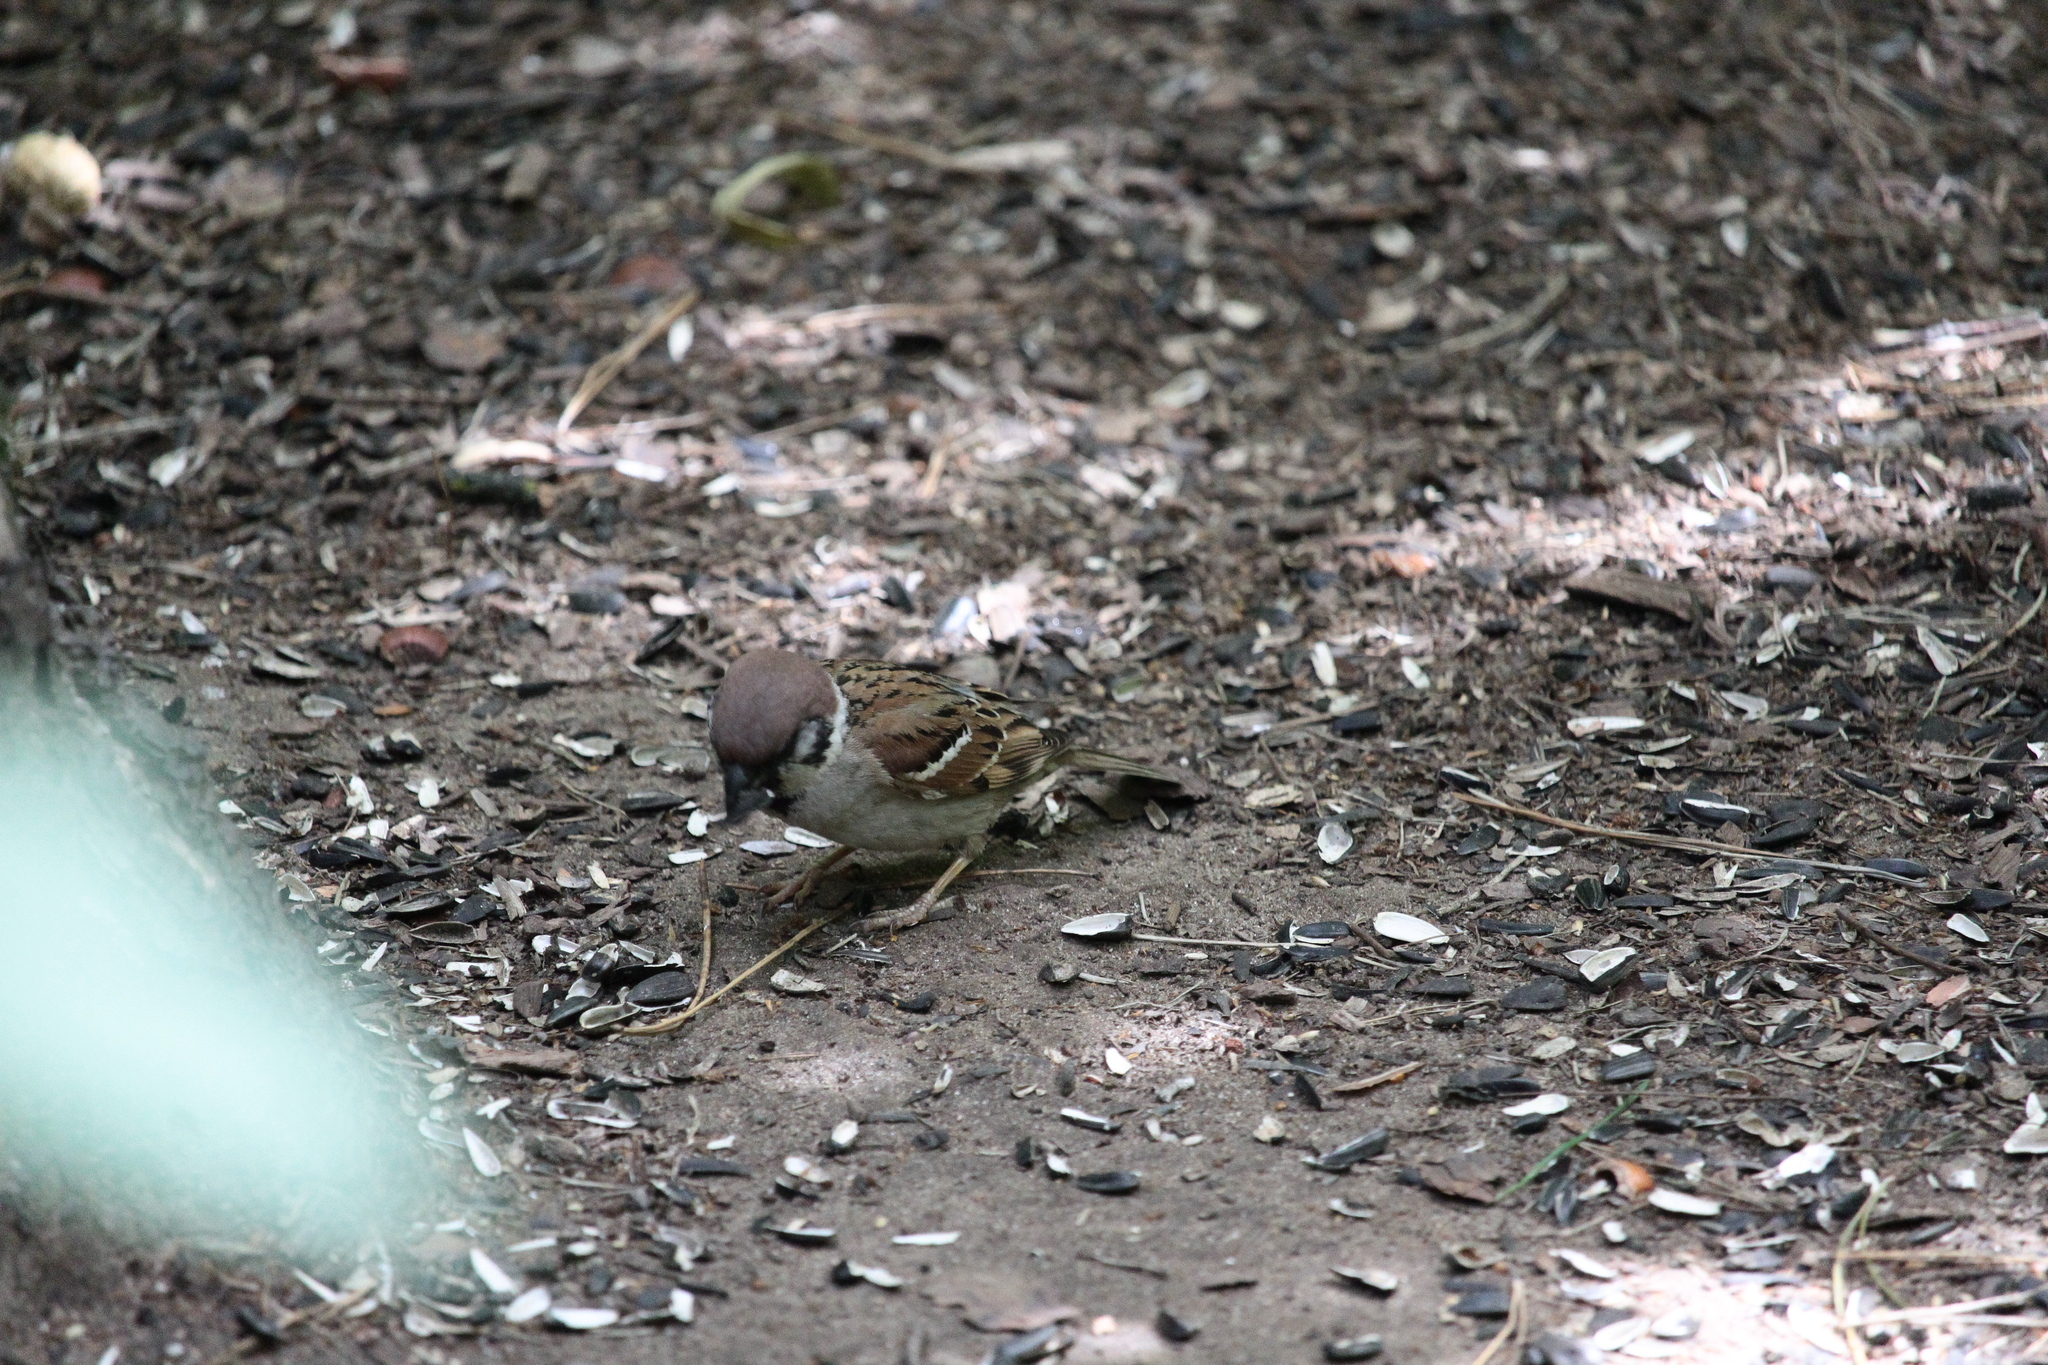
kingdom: Animalia
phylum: Chordata
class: Aves
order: Passeriformes
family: Passeridae
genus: Passer
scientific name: Passer montanus
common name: Eurasian tree sparrow
